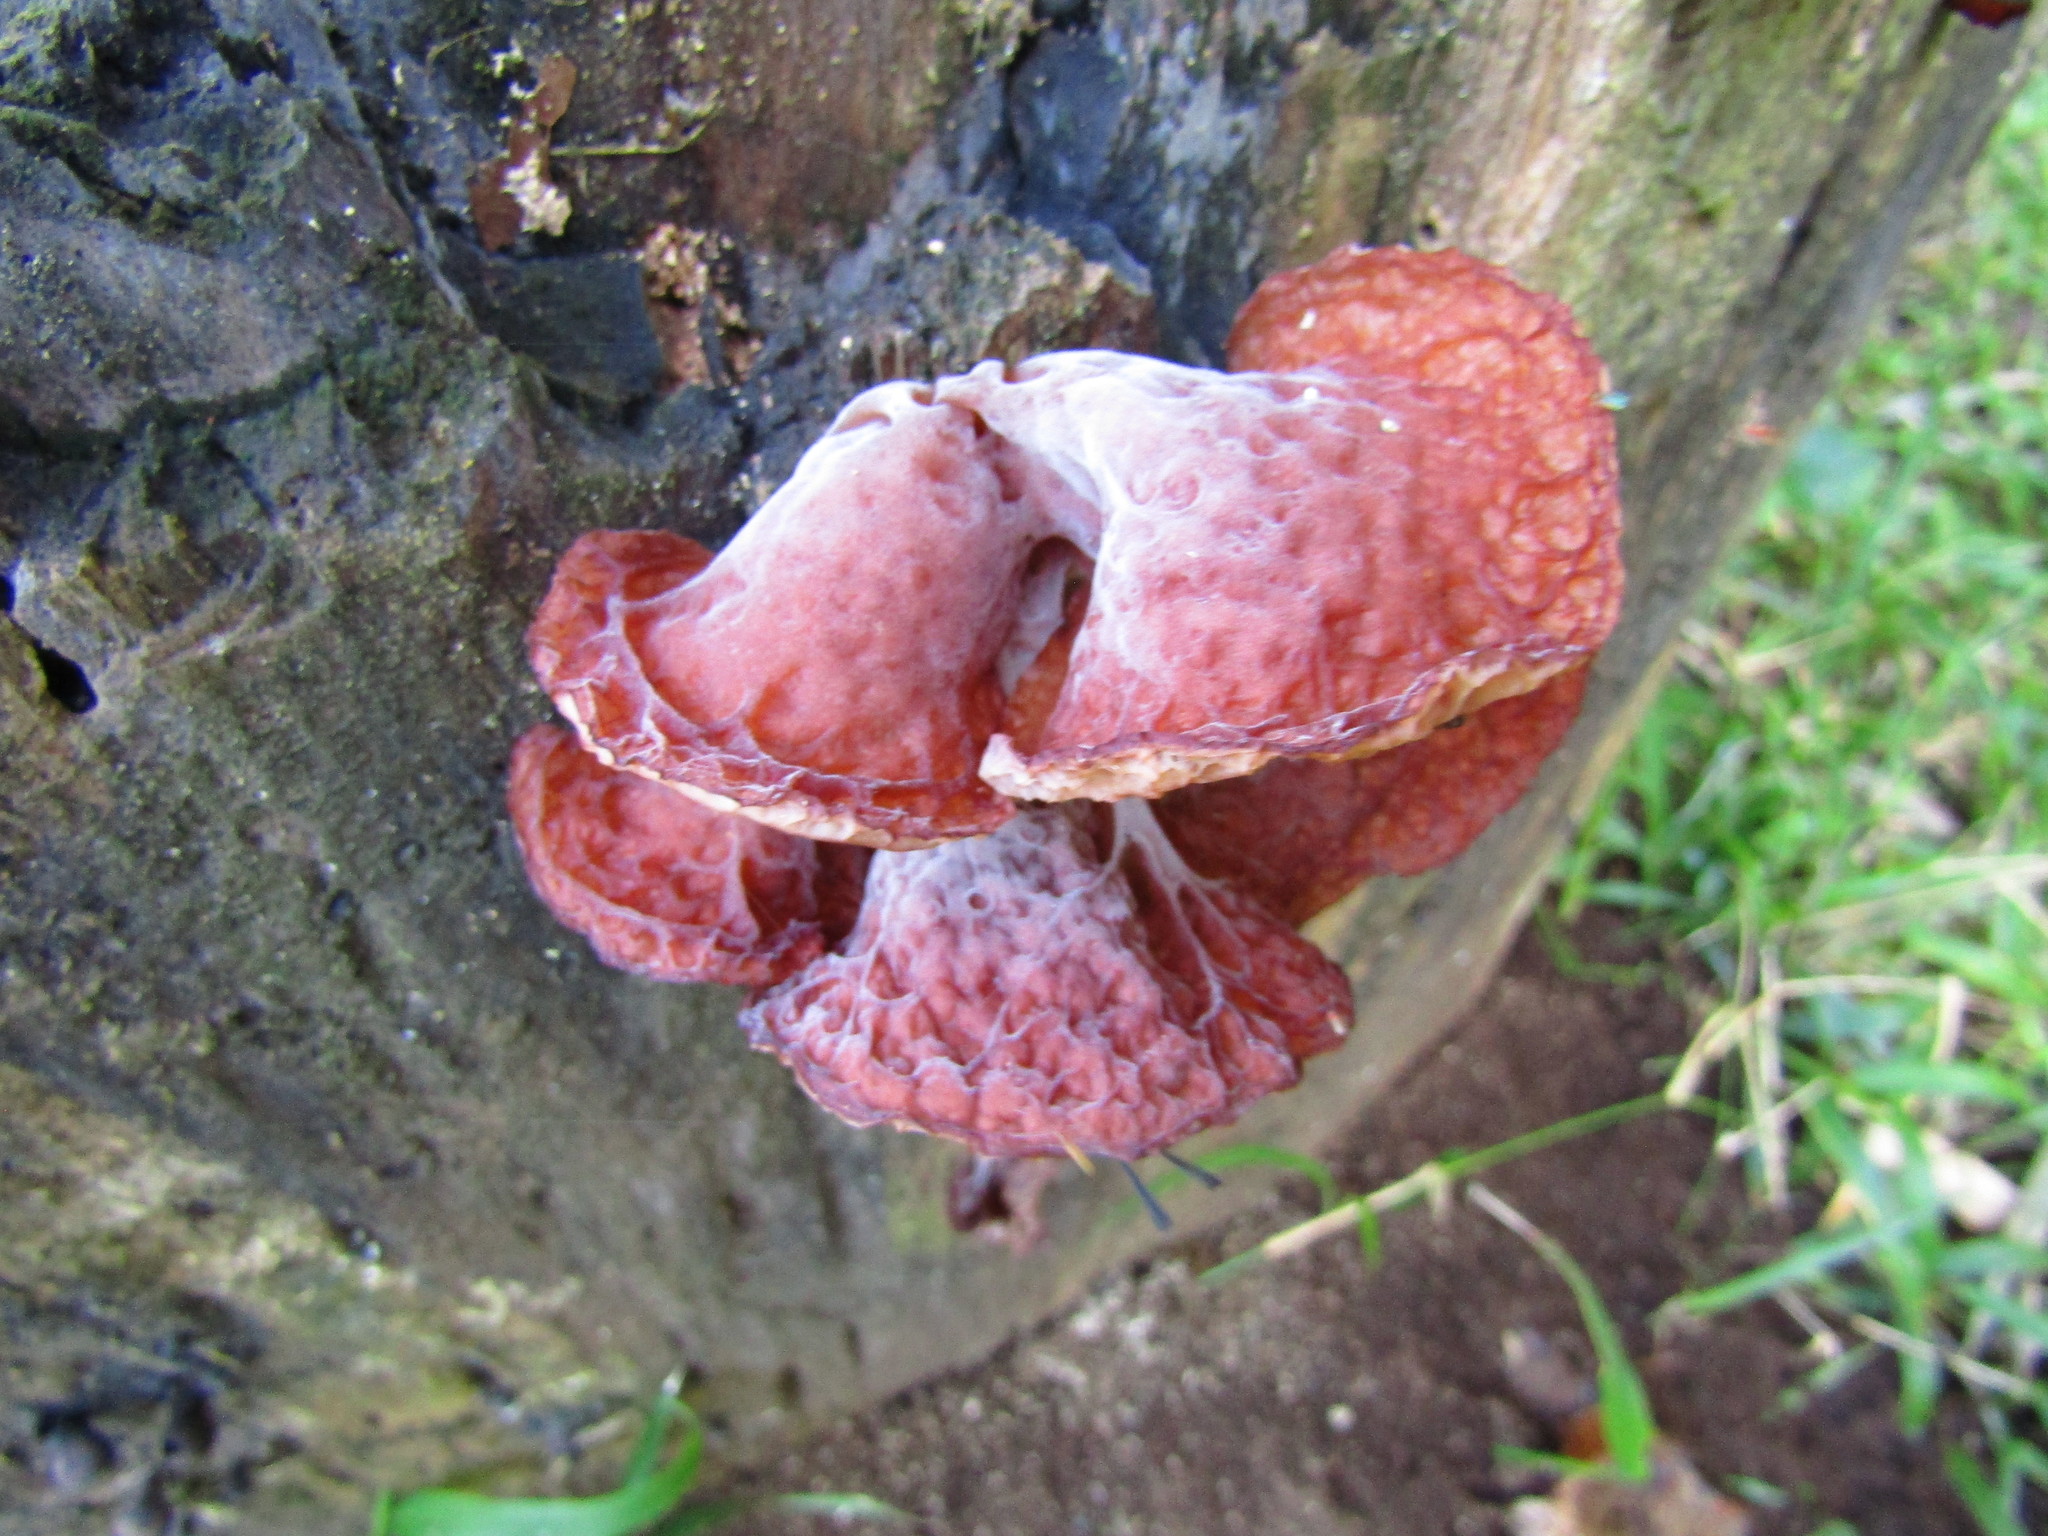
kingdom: Fungi
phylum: Basidiomycota
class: Agaricomycetes
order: Auriculariales
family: Auriculariaceae
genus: Auricularia
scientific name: Auricularia auricula-judae
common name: Jelly ear
